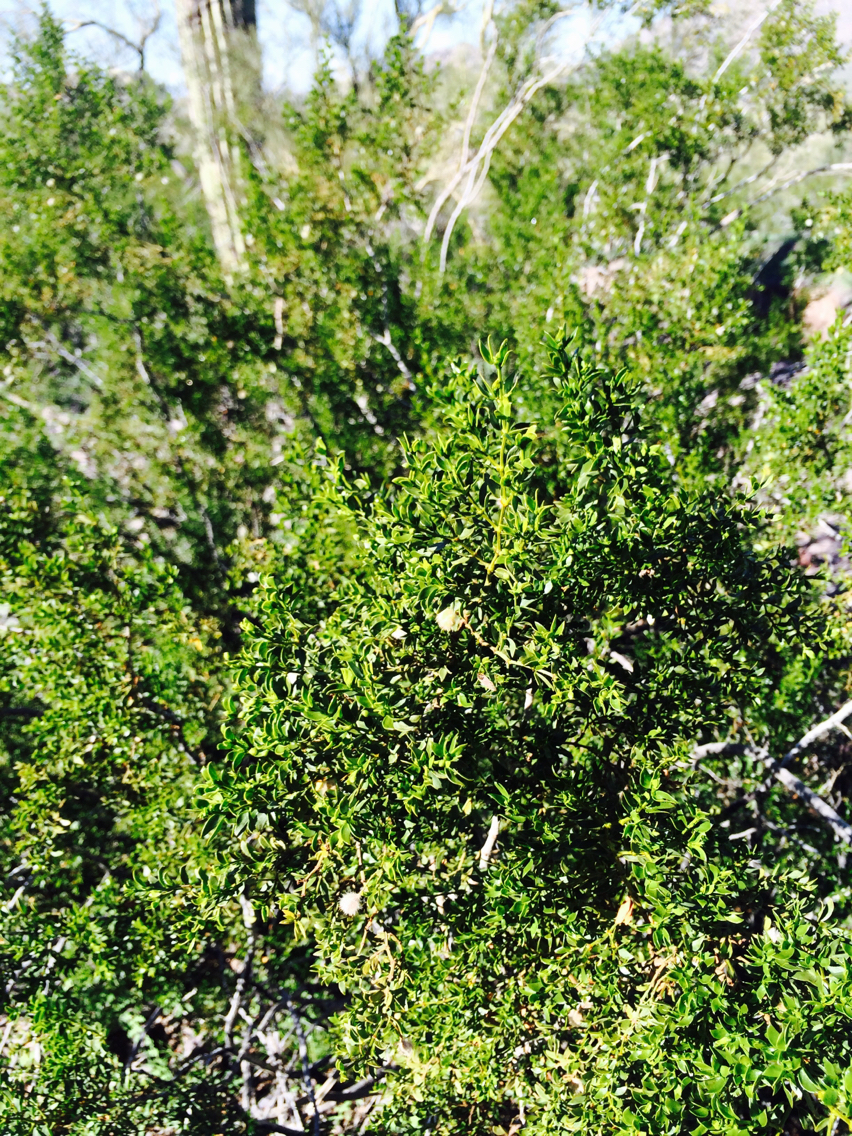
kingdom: Plantae
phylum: Tracheophyta
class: Magnoliopsida
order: Zygophyllales
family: Zygophyllaceae
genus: Larrea
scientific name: Larrea tridentata
